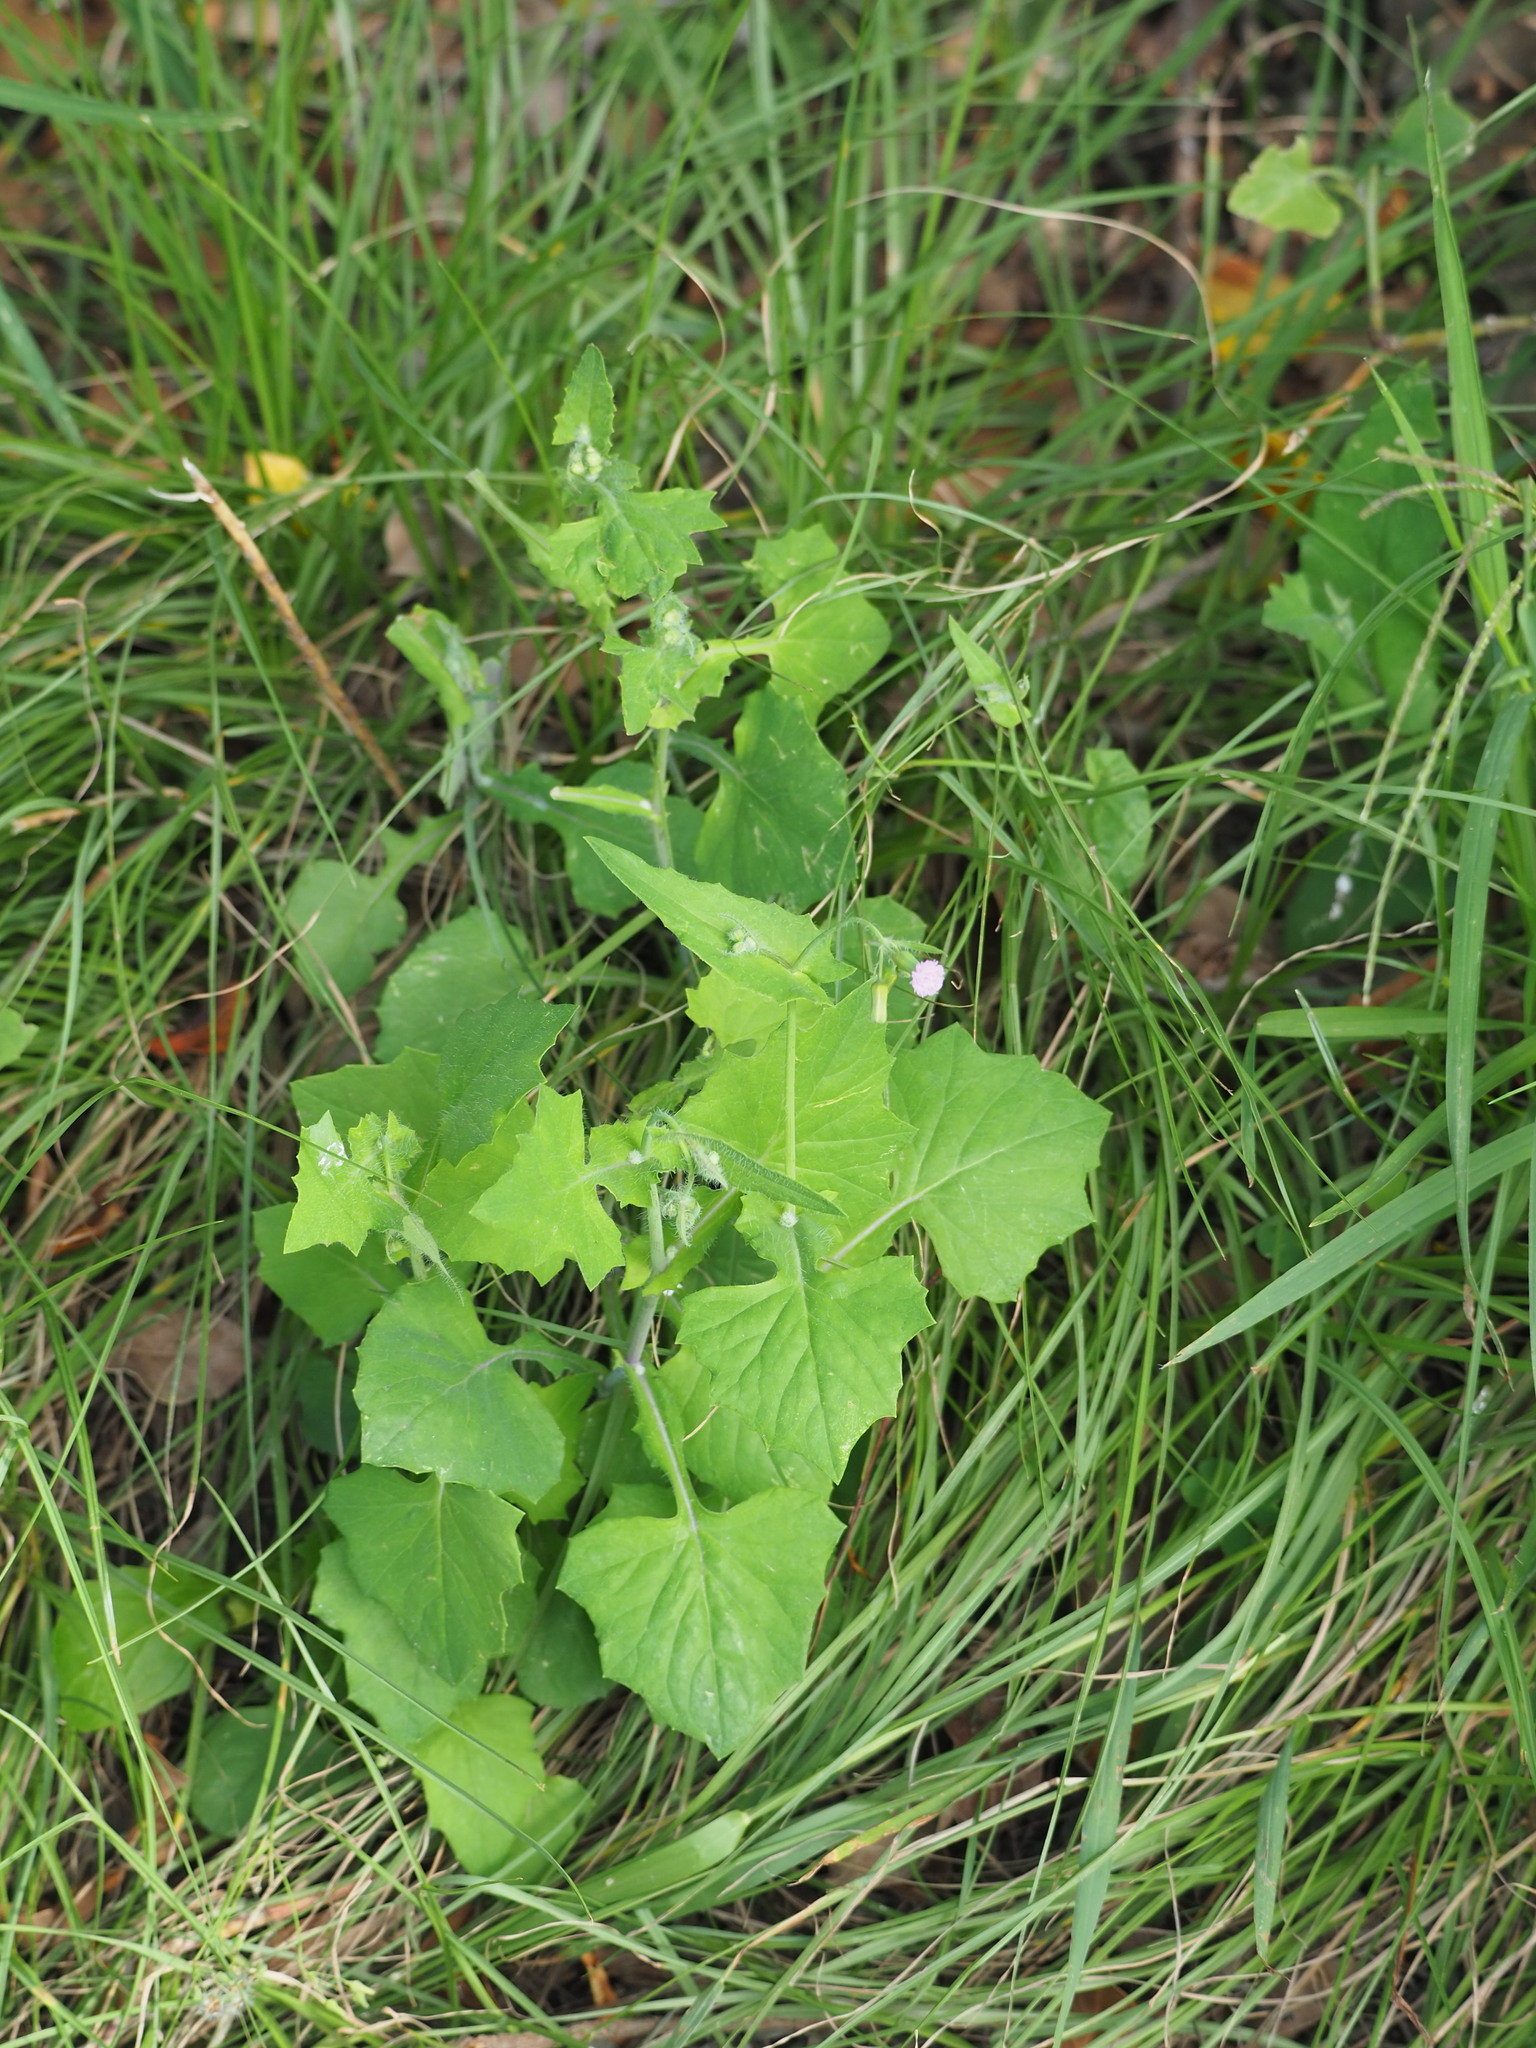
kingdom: Plantae
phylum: Tracheophyta
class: Magnoliopsida
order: Asterales
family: Asteraceae
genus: Emilia
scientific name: Emilia javanica
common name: Tassel-flower
